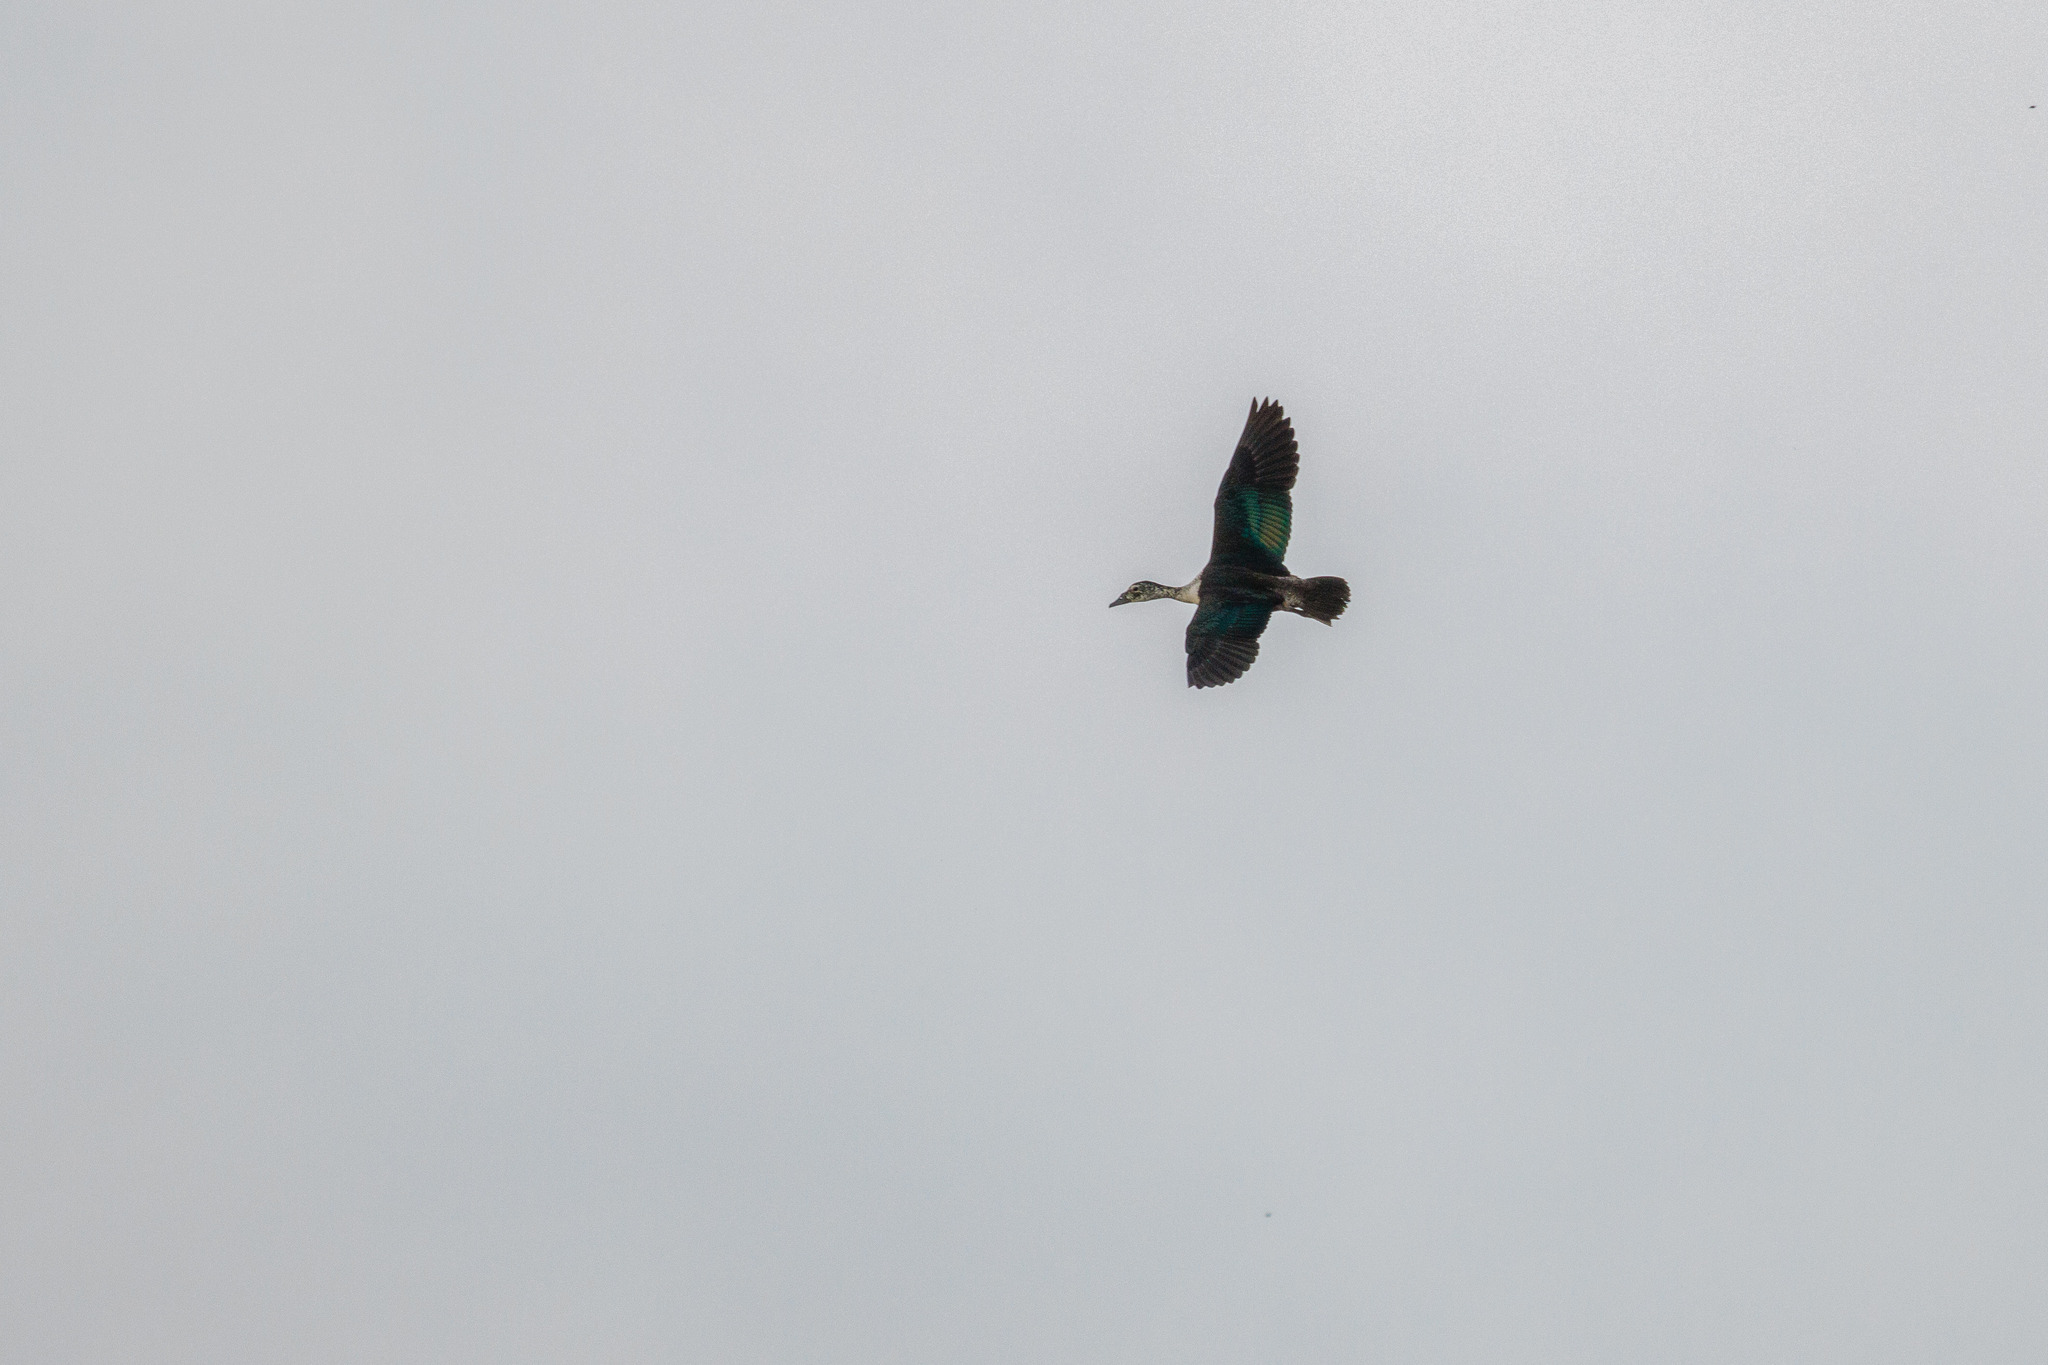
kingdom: Animalia
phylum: Chordata
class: Aves
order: Anseriformes
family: Anatidae
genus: Sarkidiornis
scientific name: Sarkidiornis sylvicola
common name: Comb duck
